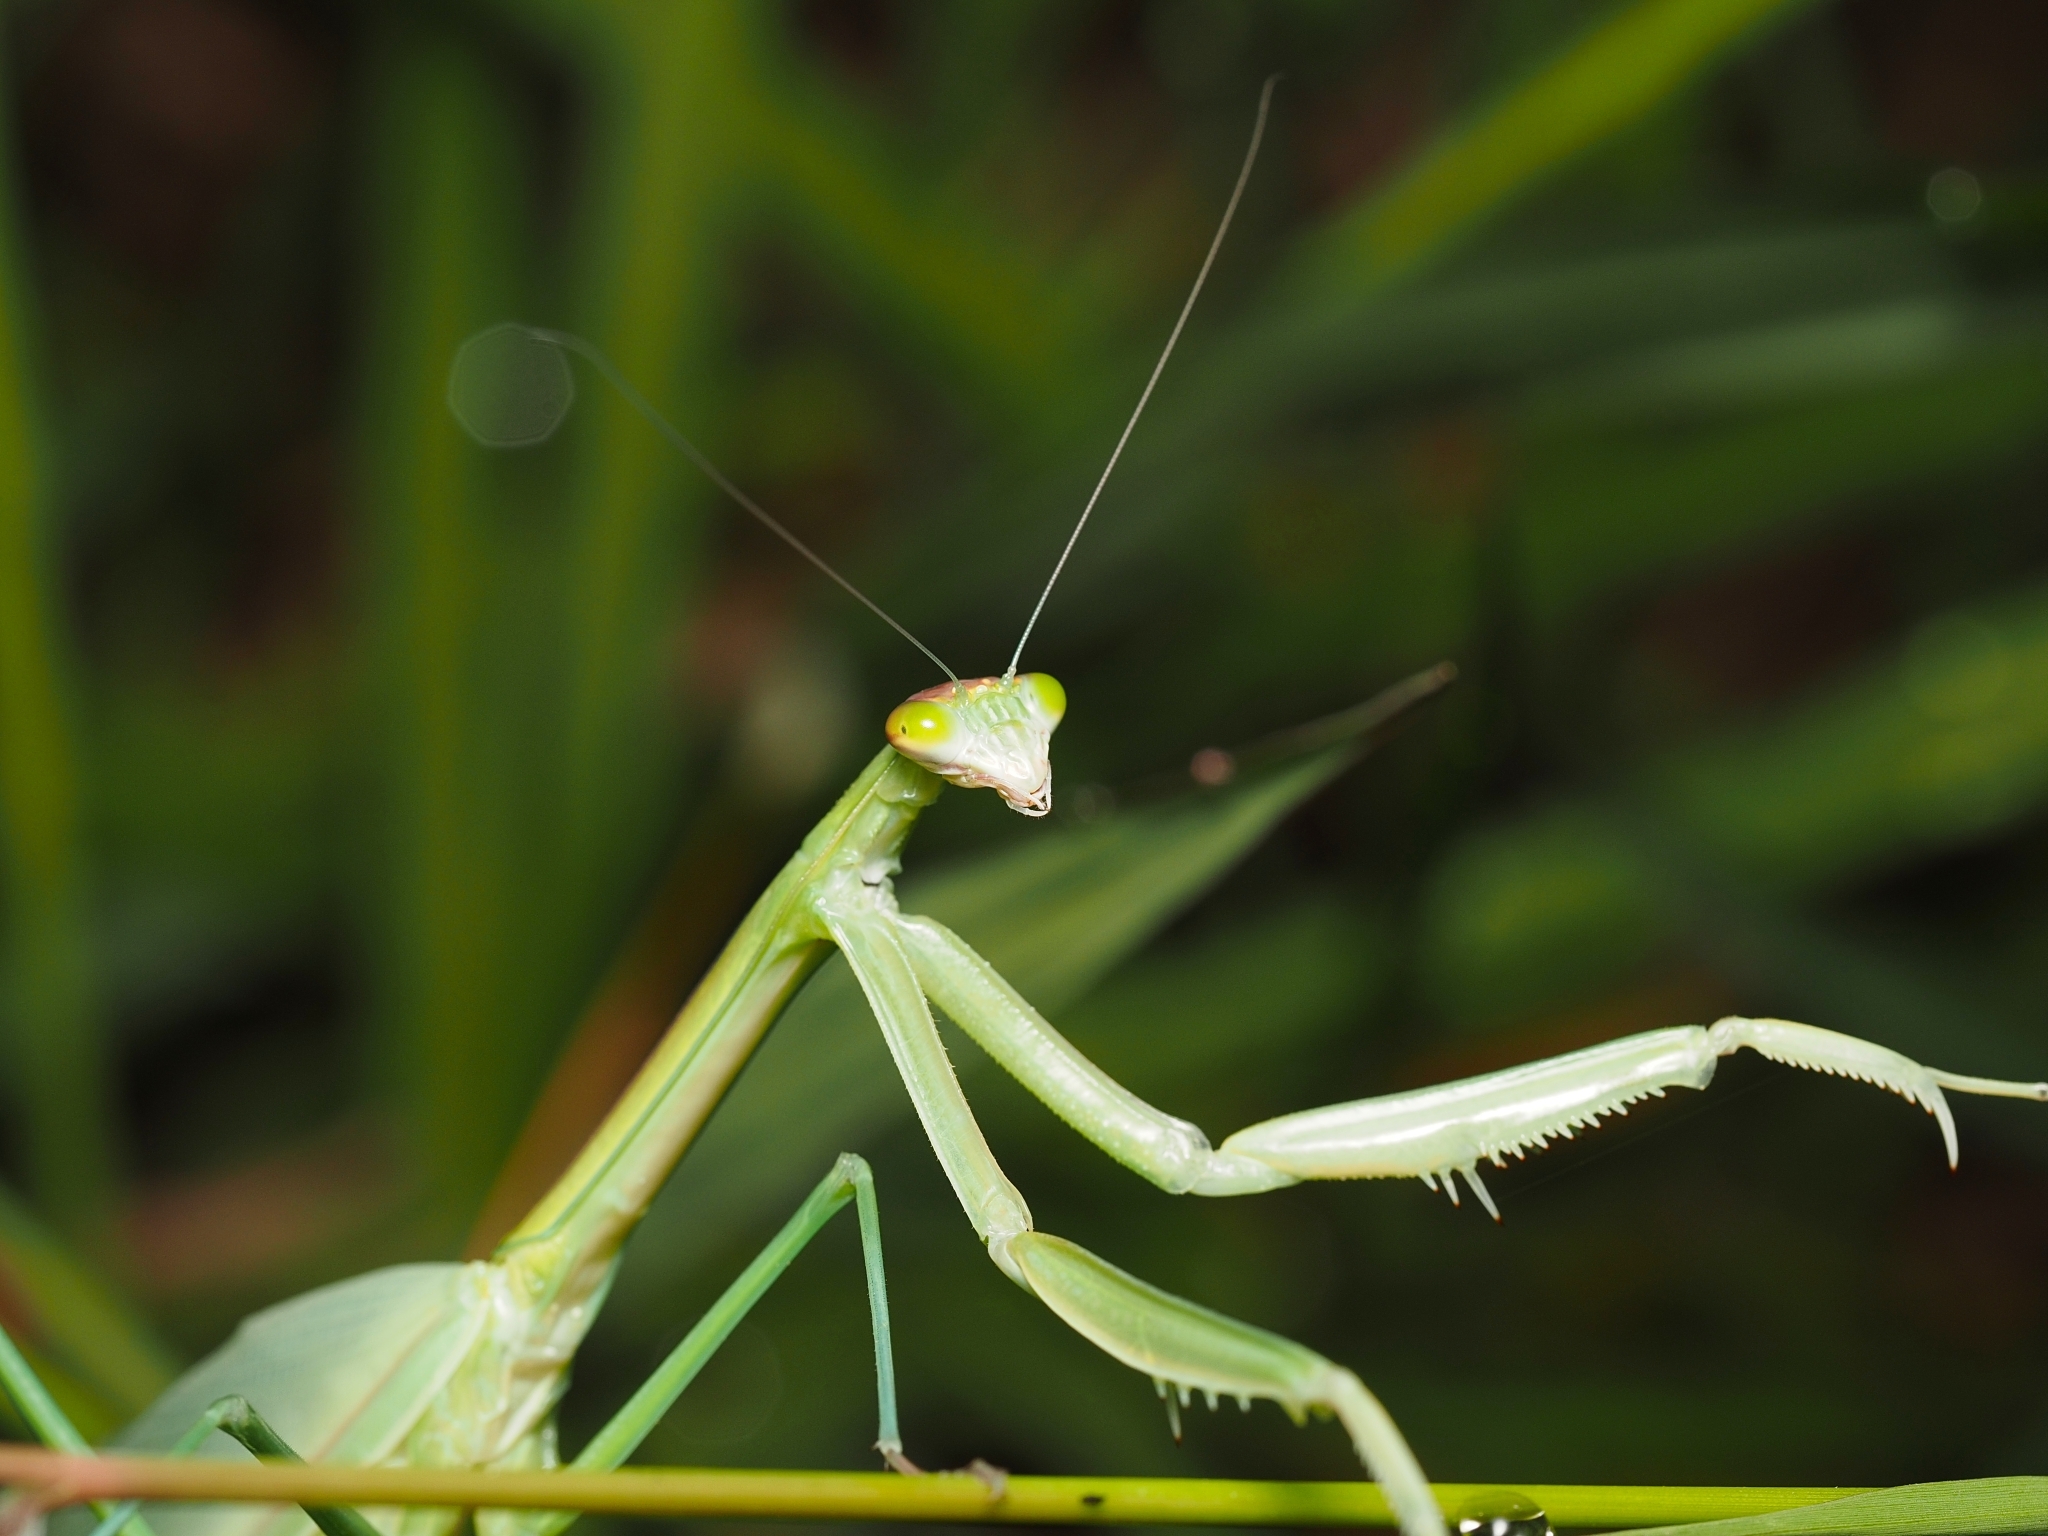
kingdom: Animalia
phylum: Arthropoda
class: Insecta
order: Mantodea
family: Mantidae
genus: Tenodera
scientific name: Tenodera australasiae
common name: Purple-winged mantis
